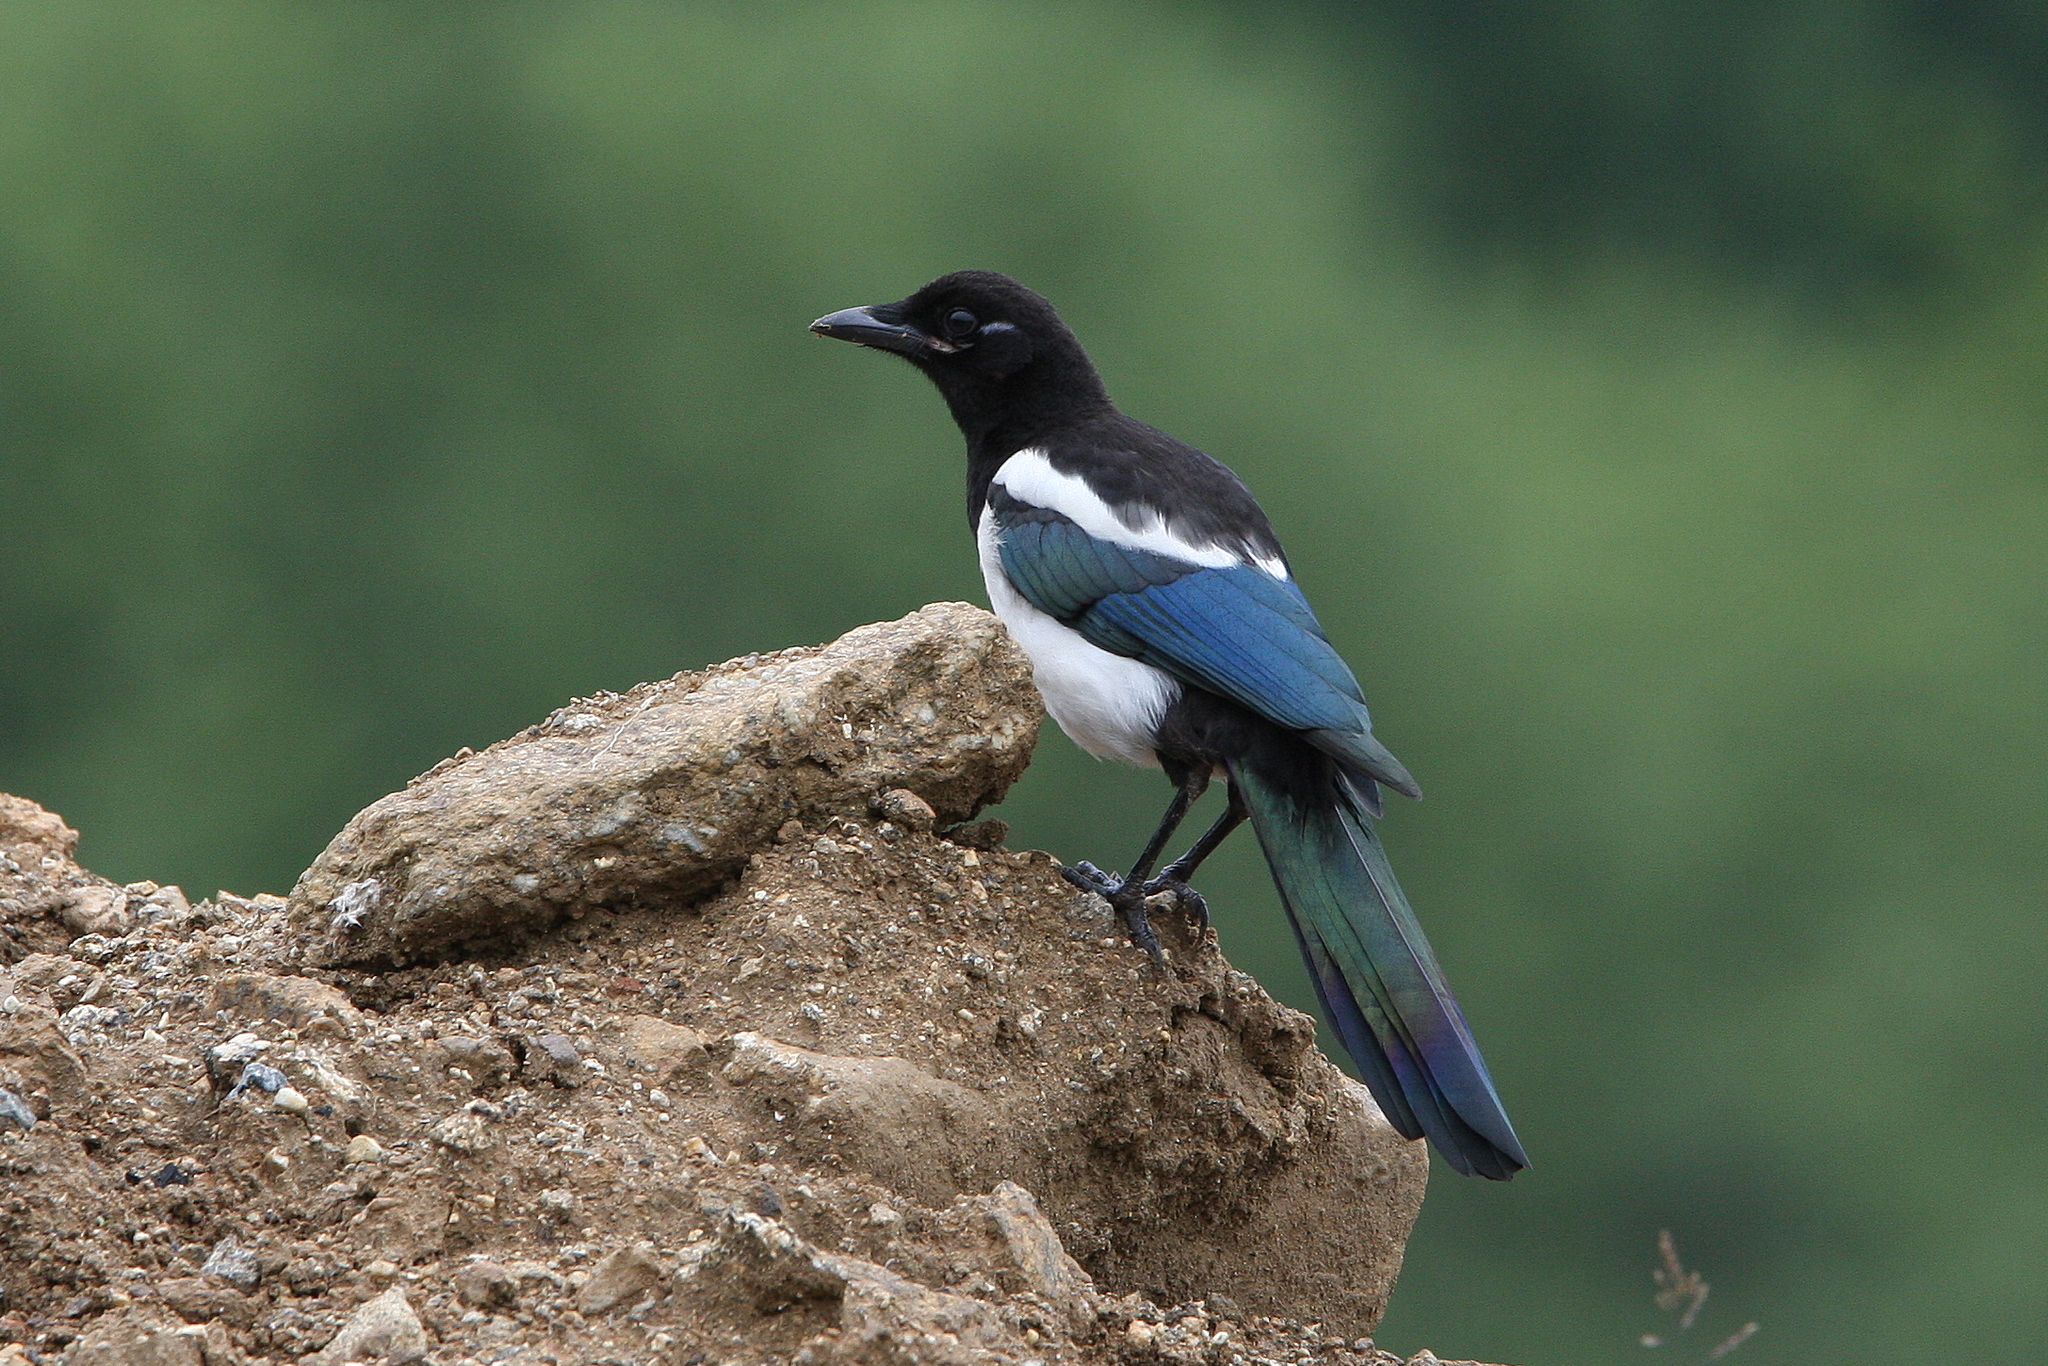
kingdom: Animalia
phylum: Chordata
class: Aves
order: Passeriformes
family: Corvidae
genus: Pica
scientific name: Pica pica
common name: Eurasian magpie
